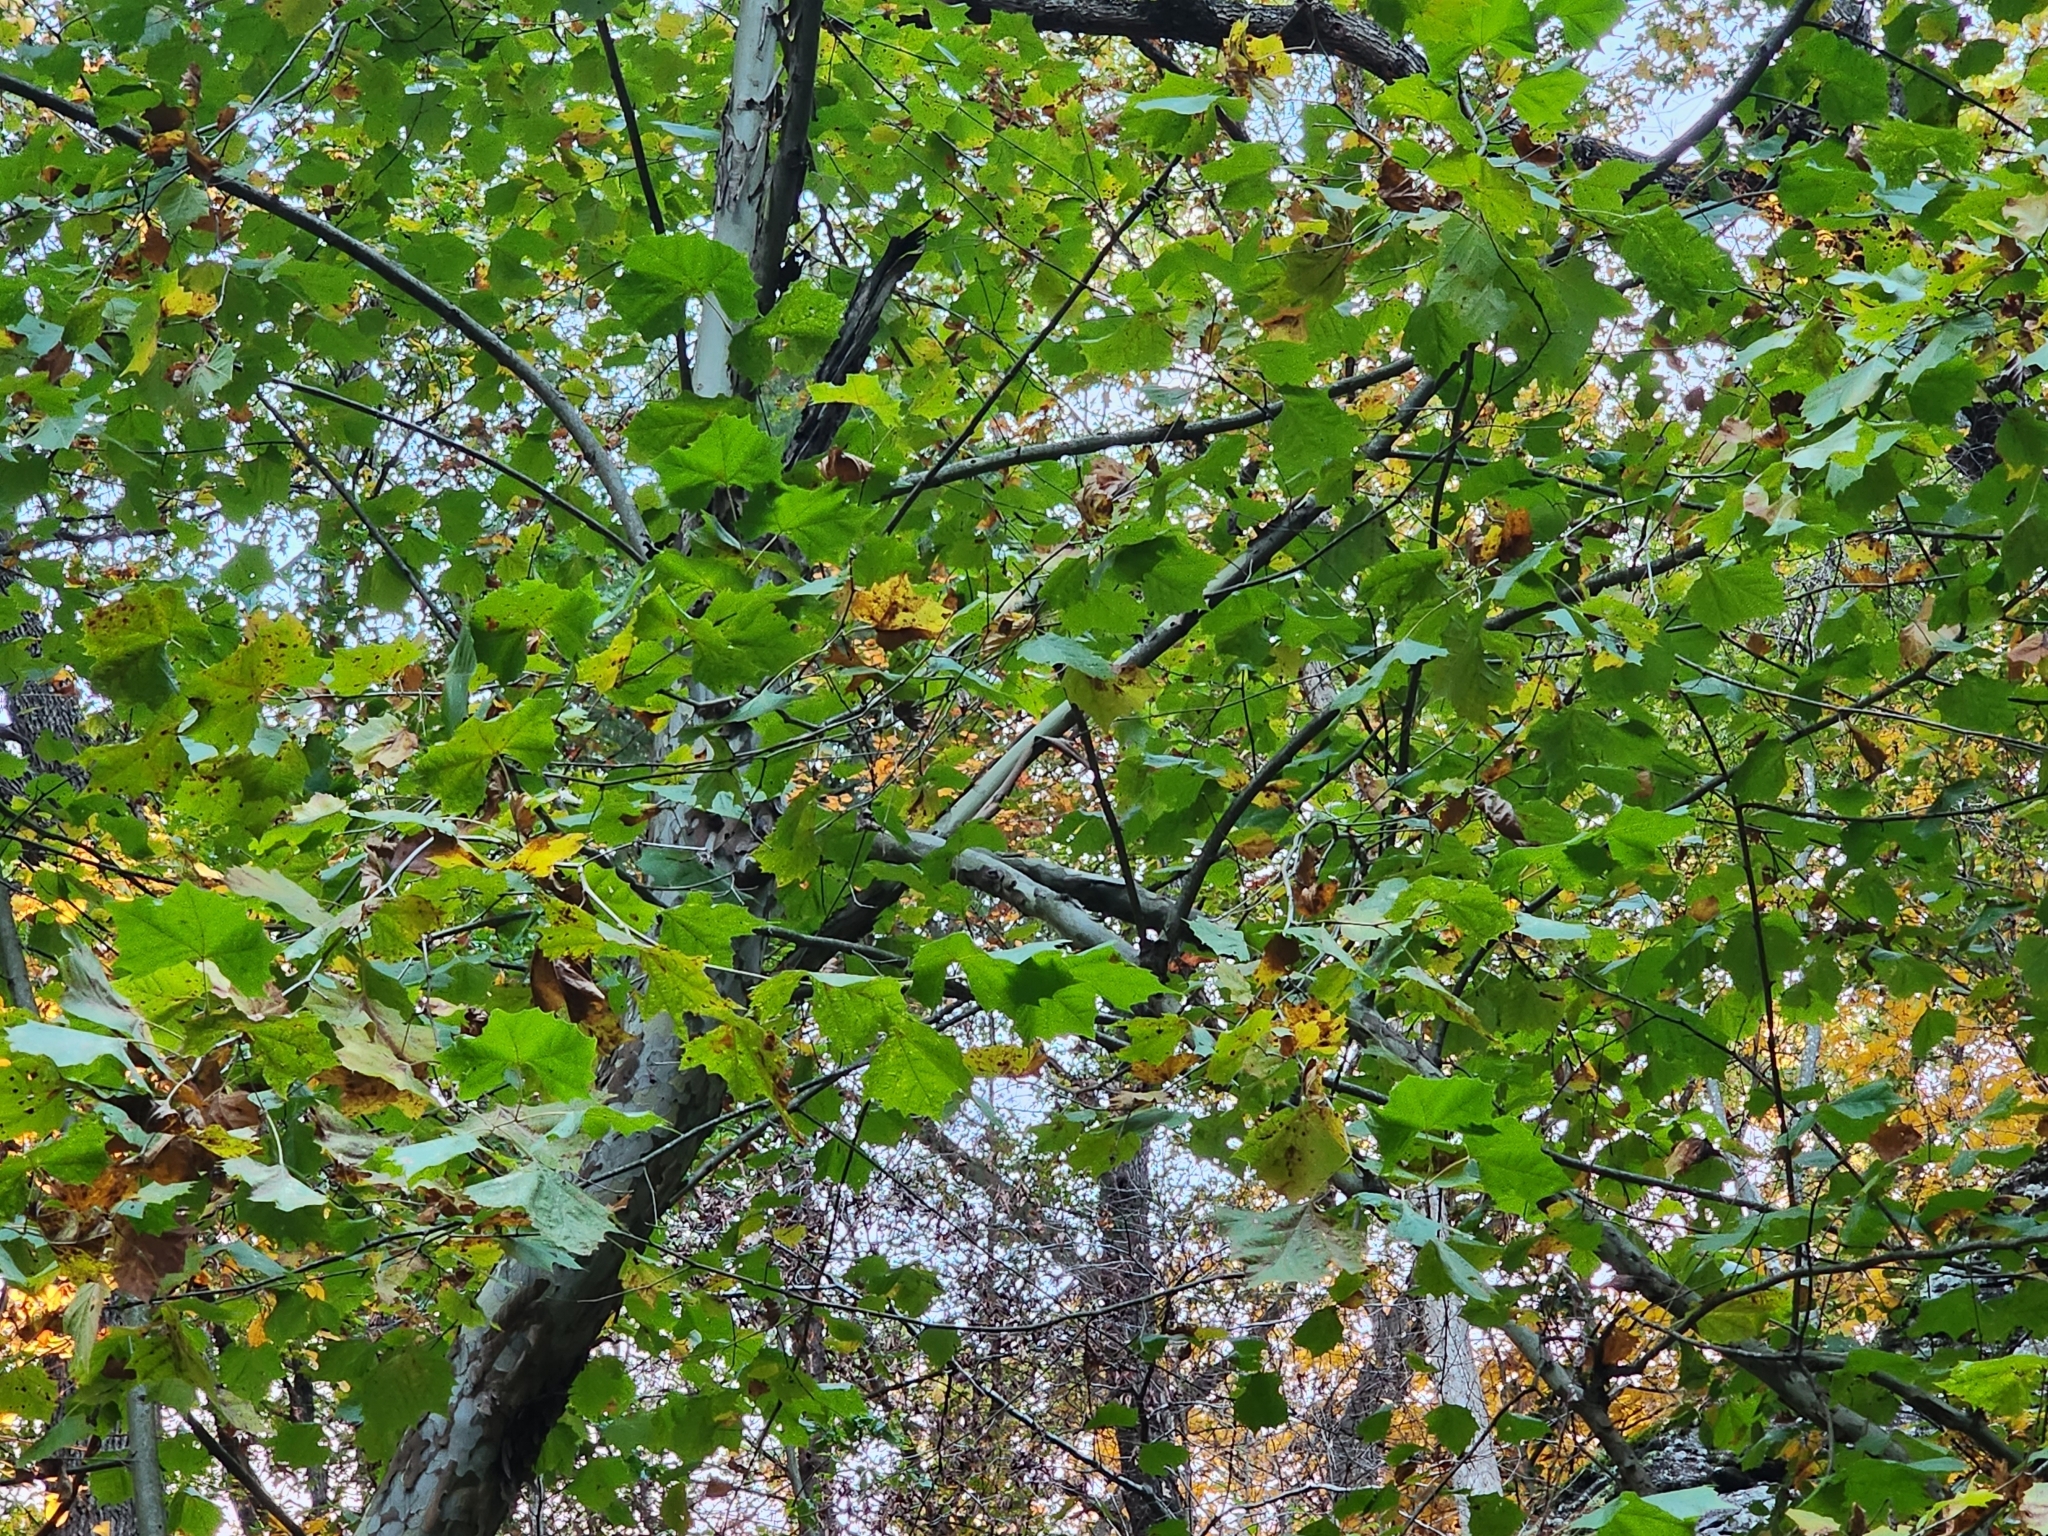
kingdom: Plantae
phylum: Tracheophyta
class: Magnoliopsida
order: Proteales
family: Platanaceae
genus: Platanus
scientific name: Platanus occidentalis
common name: American sycamore
